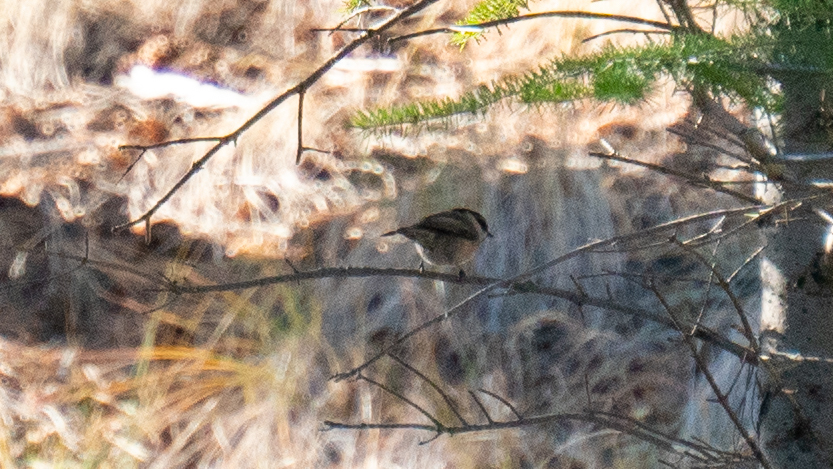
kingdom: Animalia
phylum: Chordata
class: Aves
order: Passeriformes
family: Paridae
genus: Poecile
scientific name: Poecile gambeli
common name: Mountain chickadee
